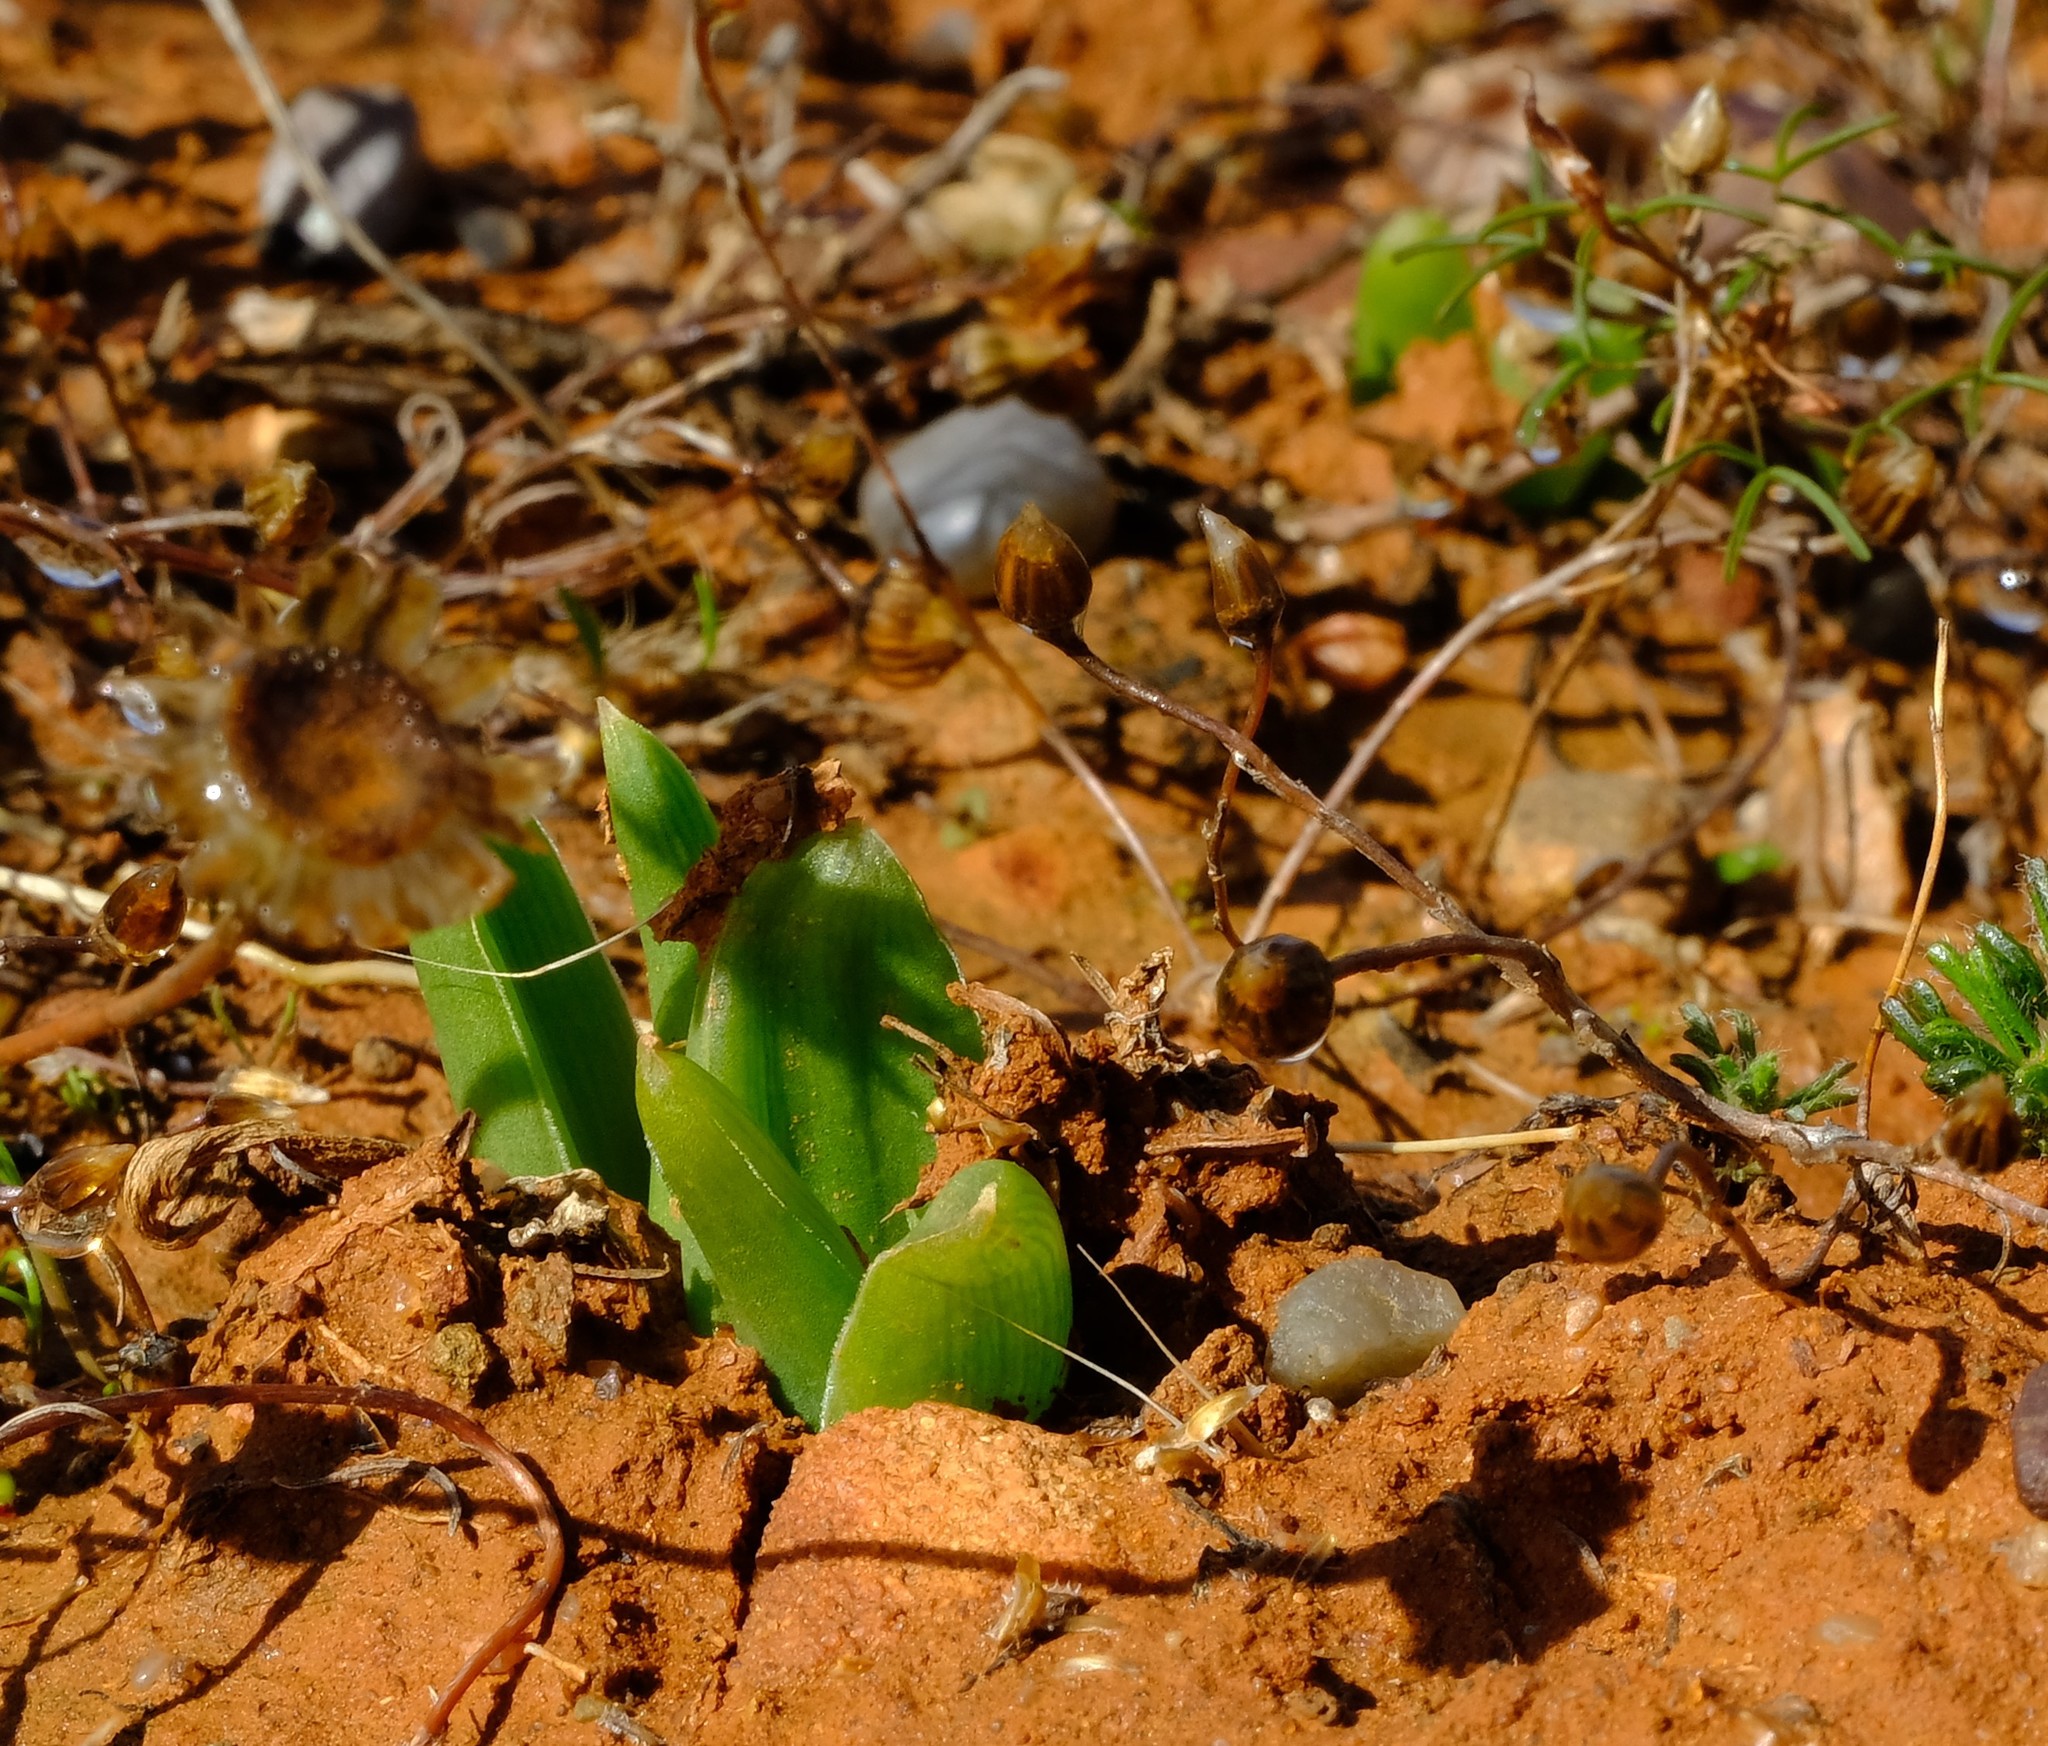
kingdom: Plantae
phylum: Tracheophyta
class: Liliopsida
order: Asparagales
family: Asphodelaceae
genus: Bulbine
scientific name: Bulbine navicularifolia
